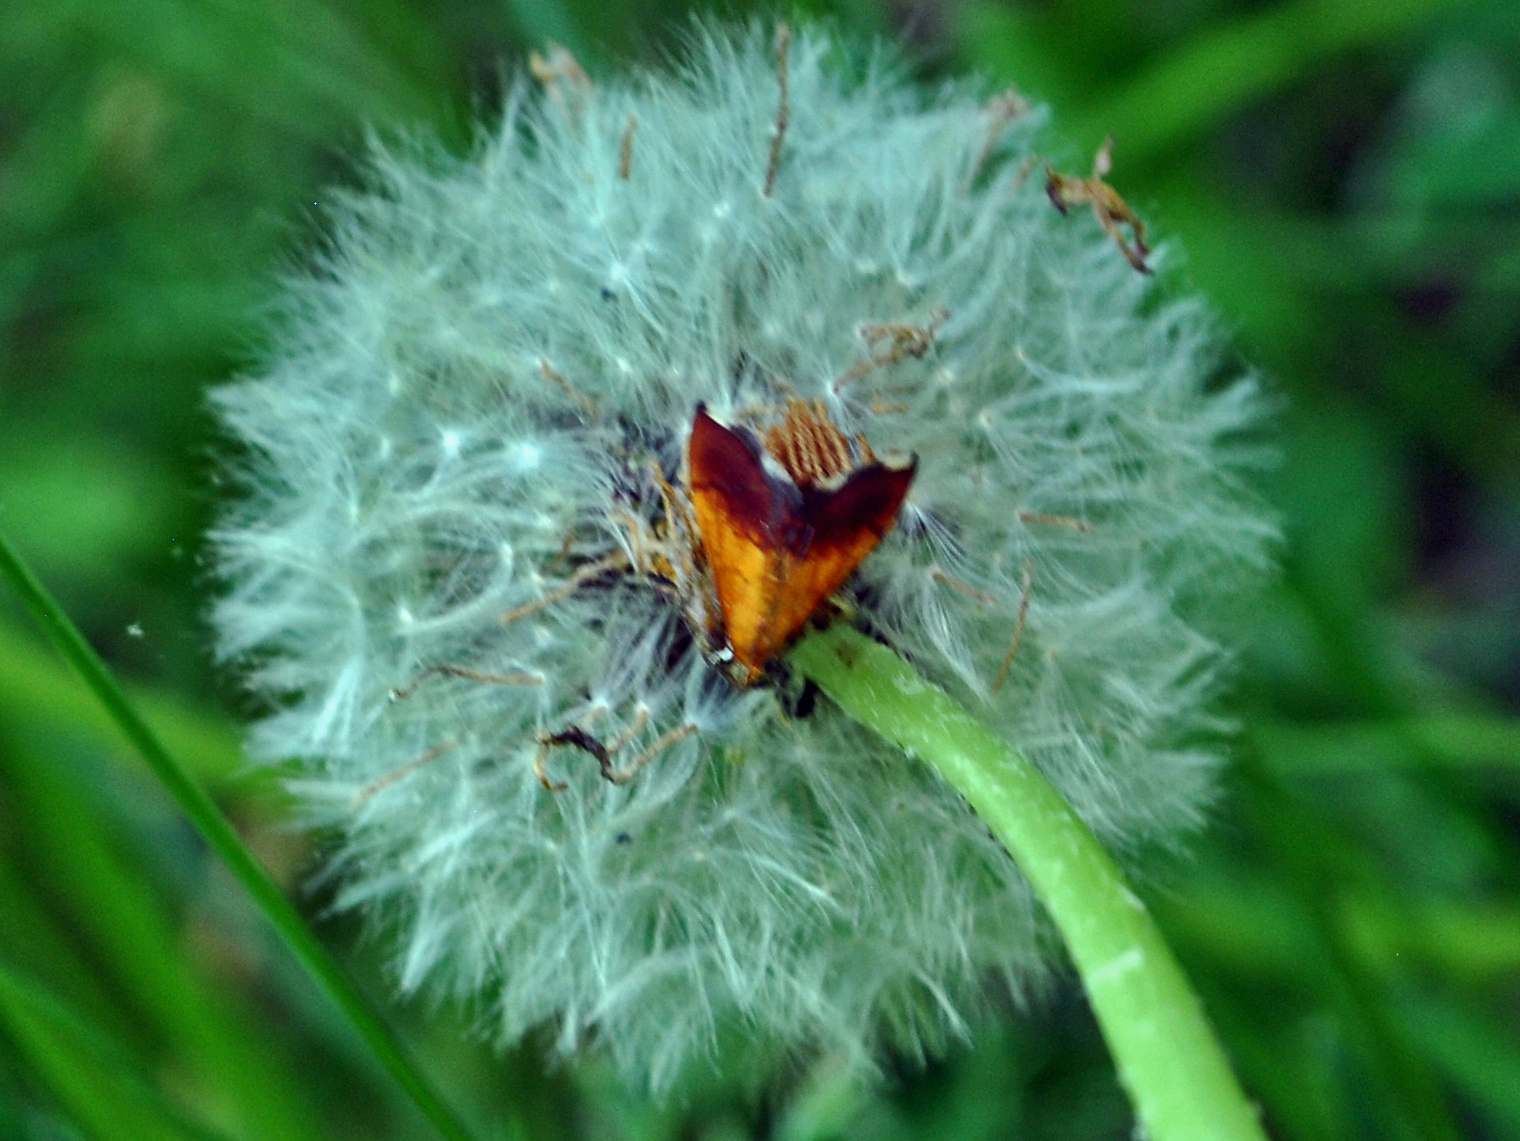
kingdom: Animalia
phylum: Arthropoda
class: Insecta
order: Lepidoptera
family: Crambidae
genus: Pyrausta
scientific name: Pyrausta bicoloralis
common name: Bicolored pyrausta moth
